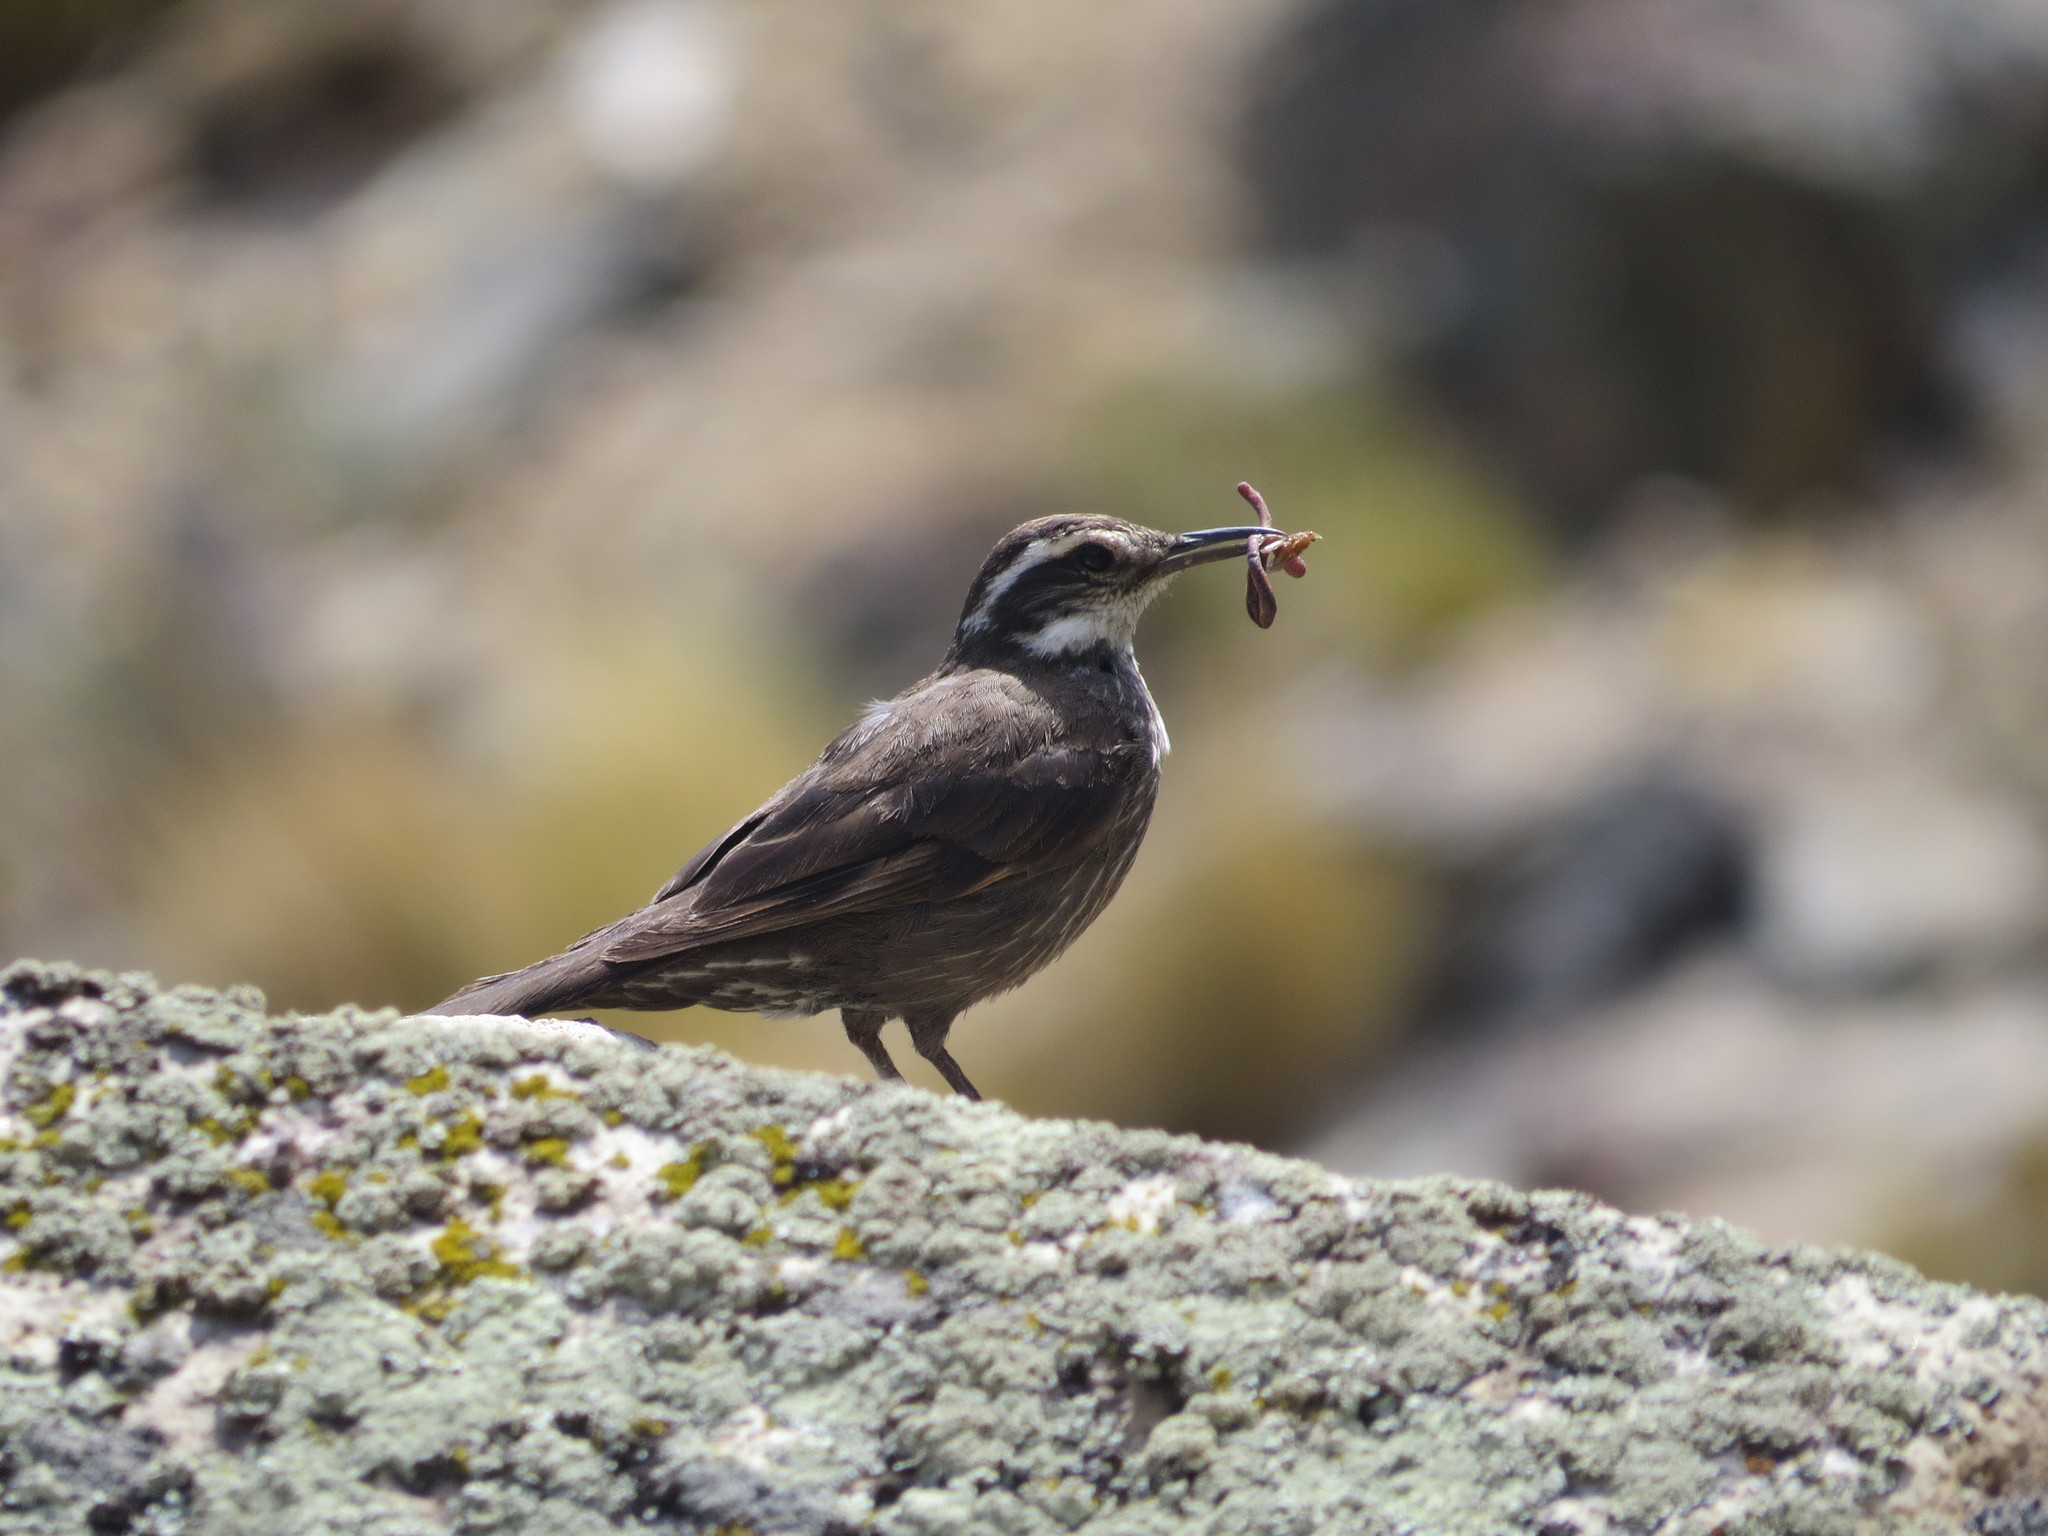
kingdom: Animalia
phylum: Chordata
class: Aves
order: Passeriformes
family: Furnariidae
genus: Cinclodes
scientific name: Cinclodes patagonicus
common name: Dark-bellied cinclodes
